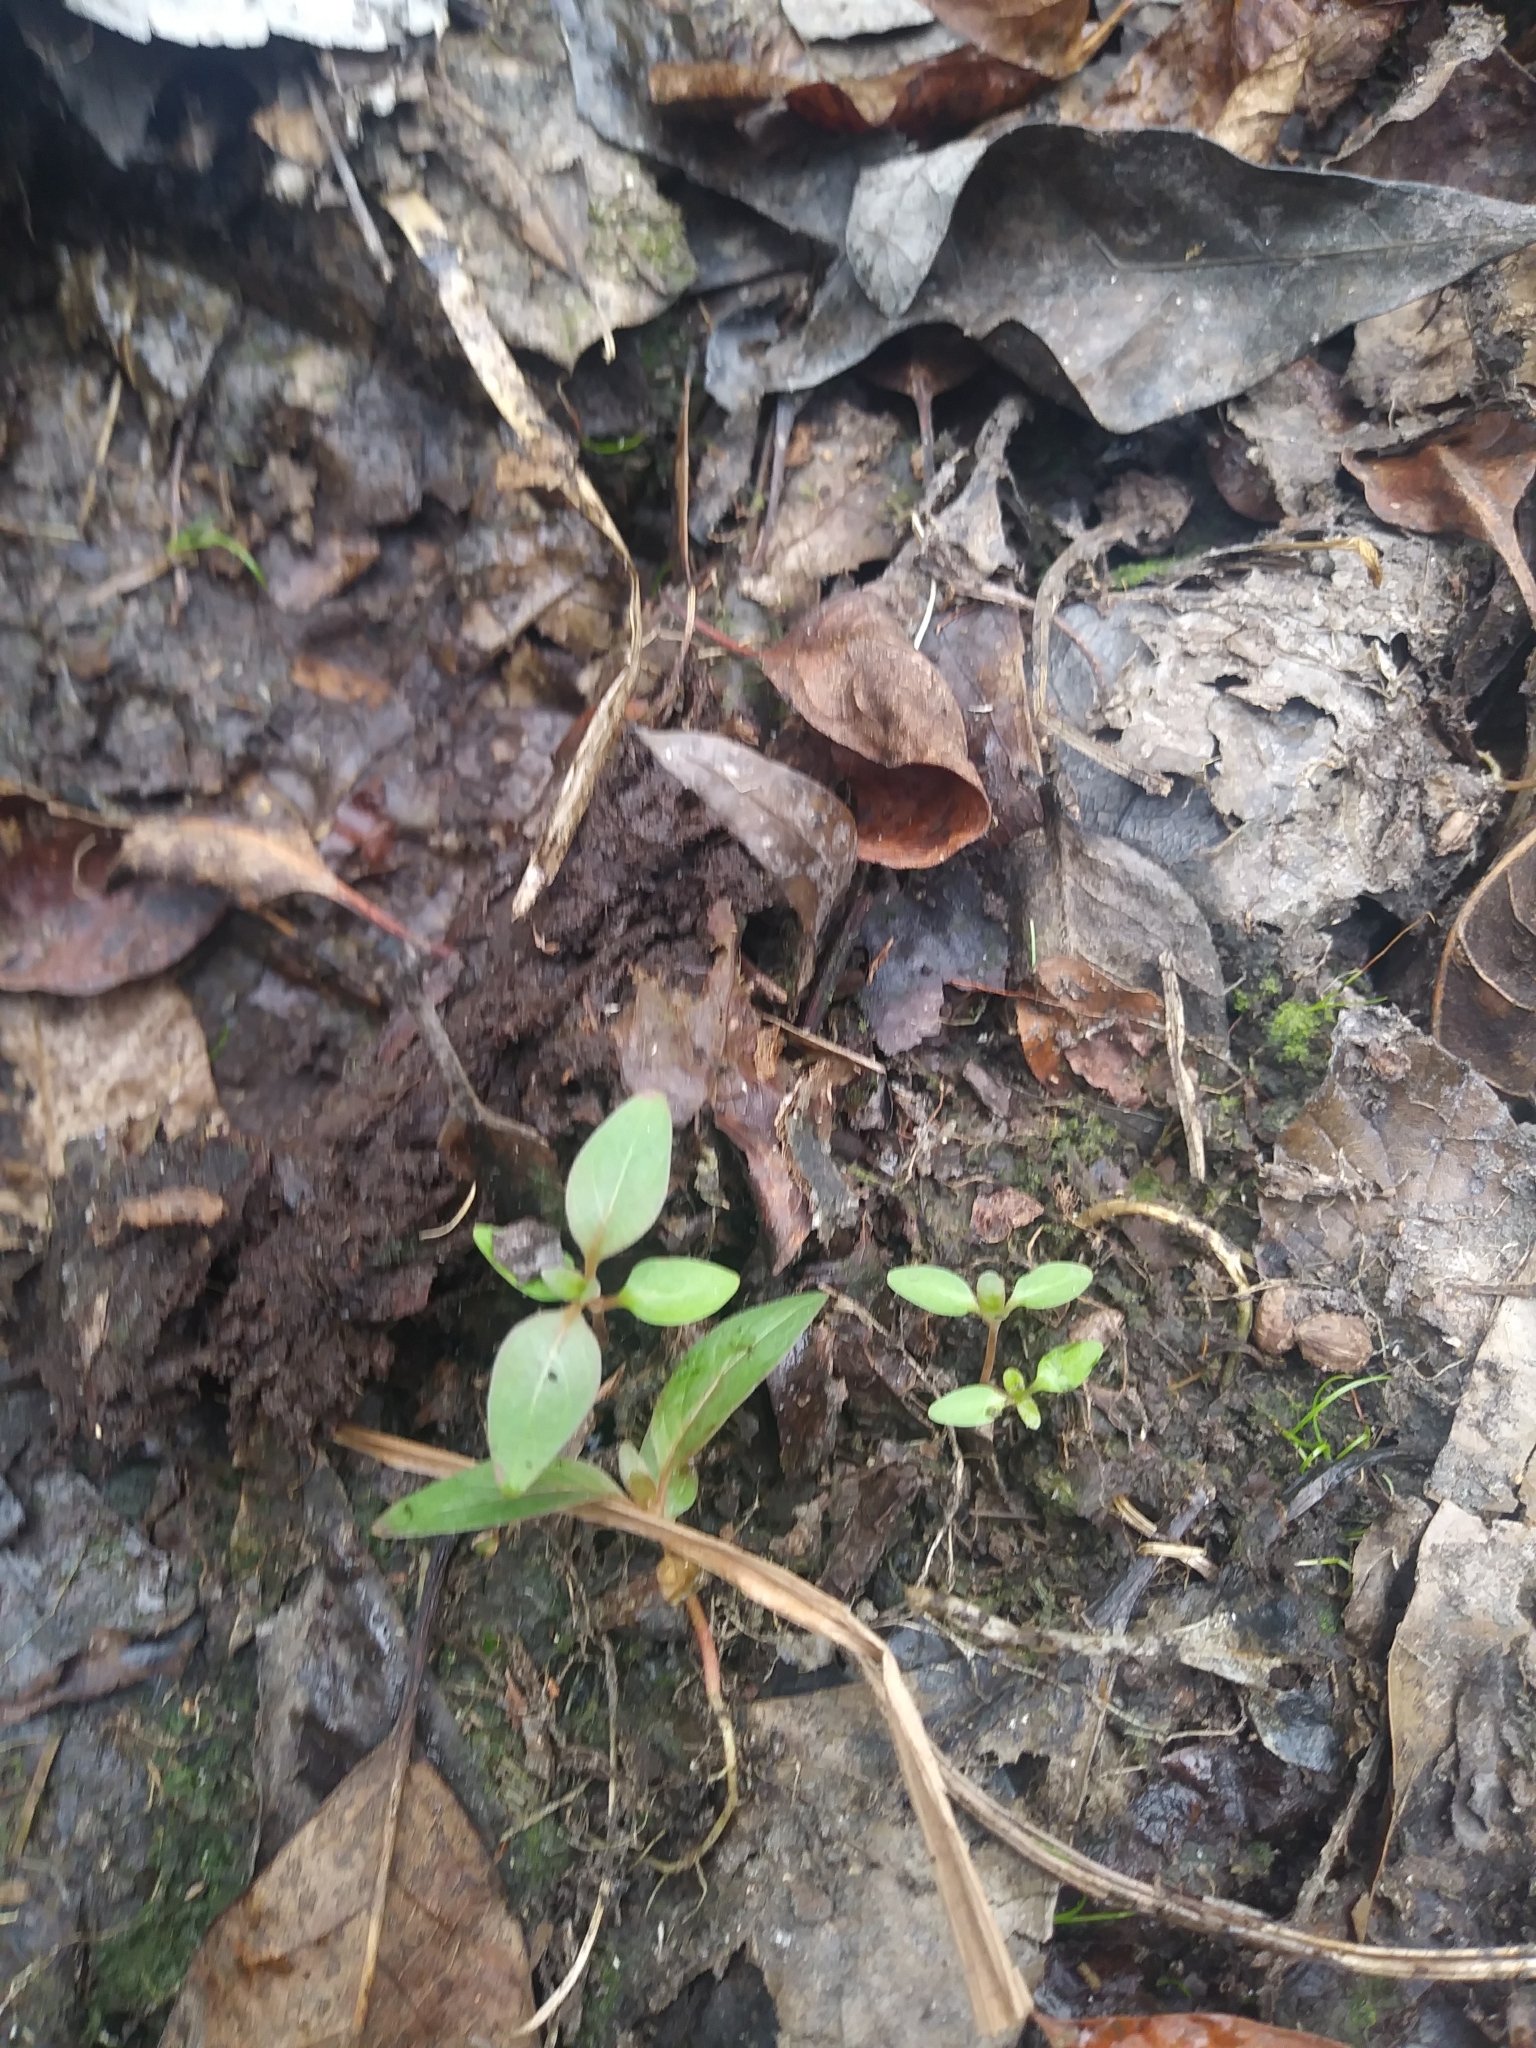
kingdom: Plantae
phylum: Tracheophyta
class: Magnoliopsida
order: Gentianales
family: Rubiaceae
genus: Edrastima
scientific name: Edrastima uniflora
